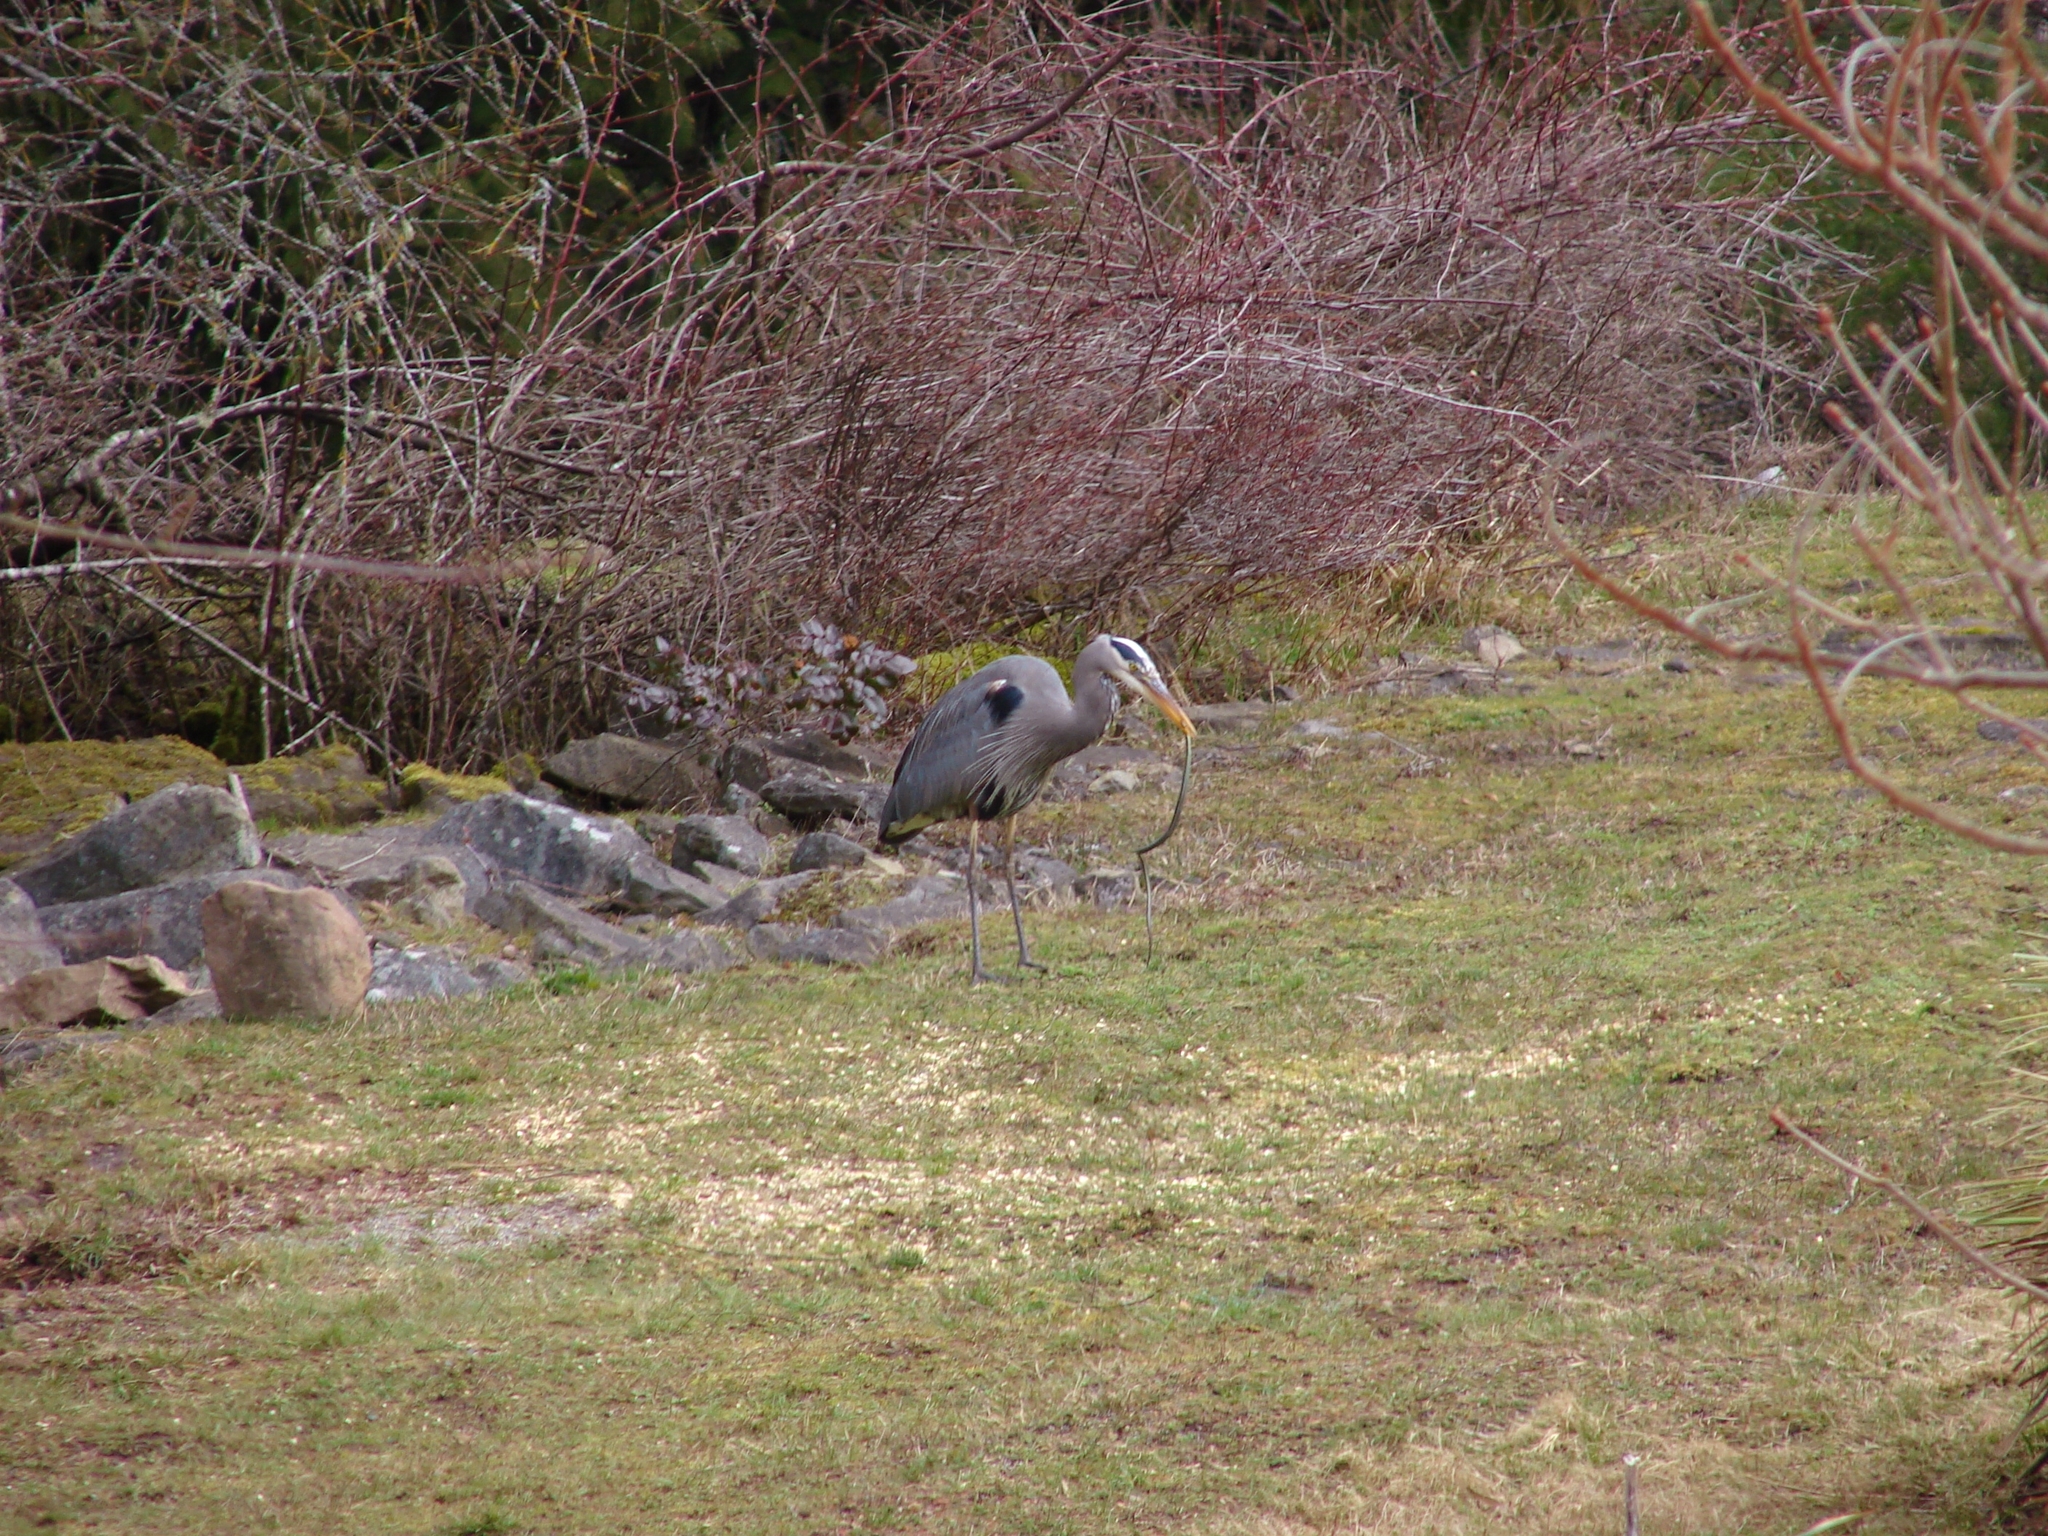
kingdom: Animalia
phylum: Chordata
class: Squamata
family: Colubridae
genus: Thamnophis
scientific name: Thamnophis sirtalis
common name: Common garter snake
